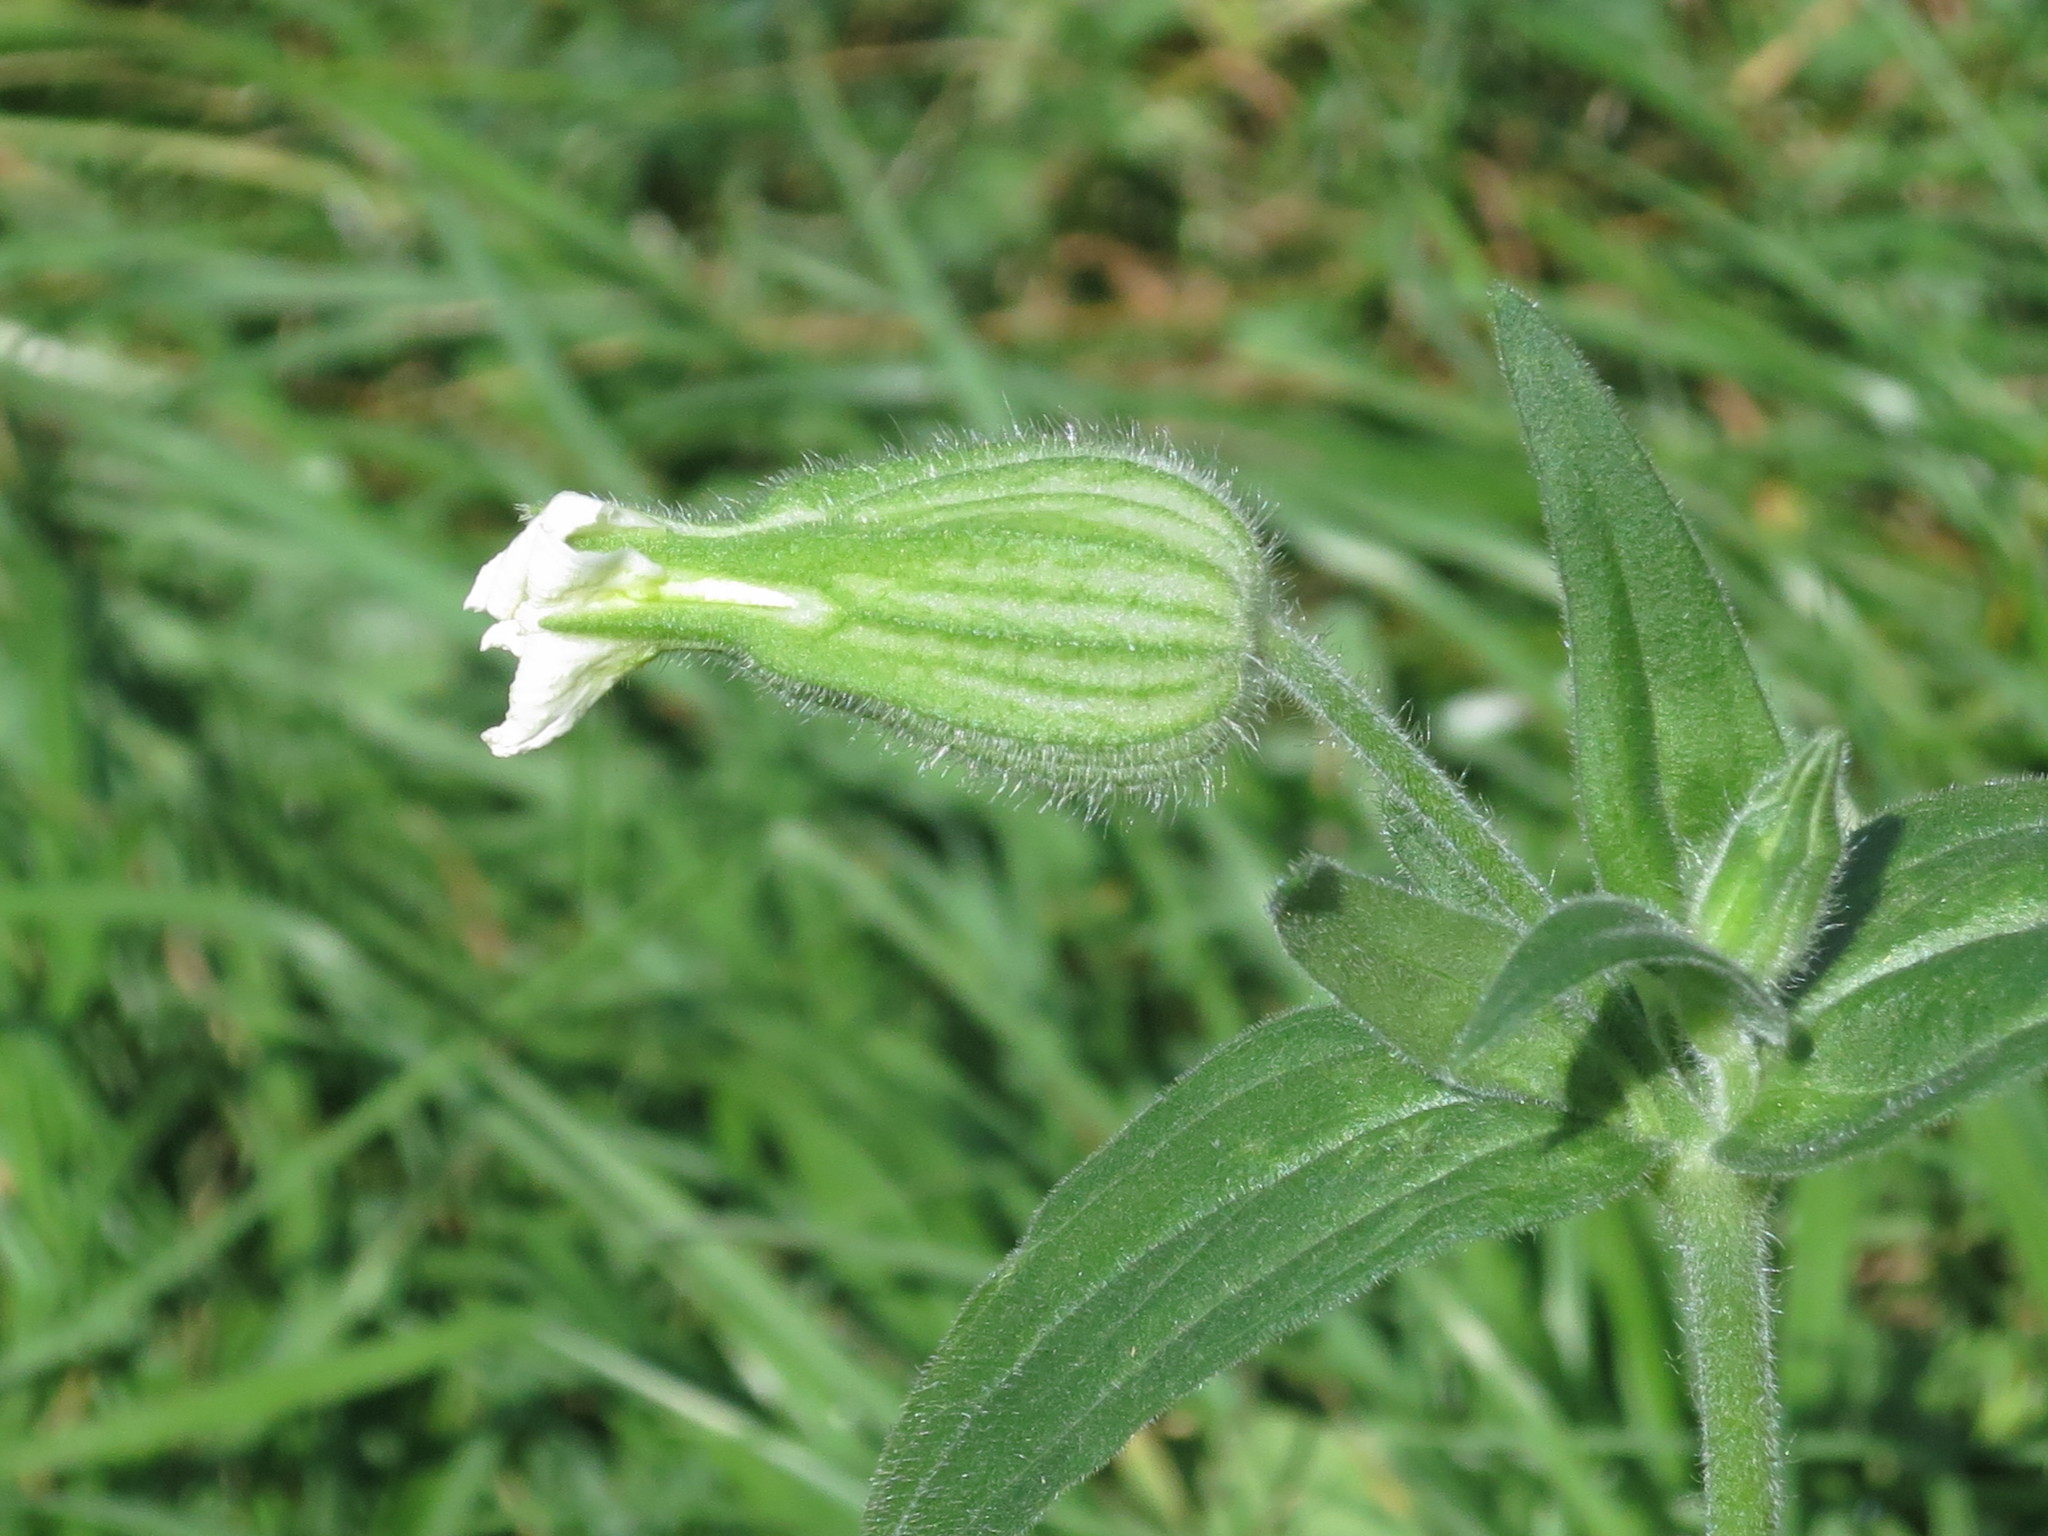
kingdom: Plantae
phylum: Tracheophyta
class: Magnoliopsida
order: Caryophyllales
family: Caryophyllaceae
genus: Silene
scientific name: Silene latifolia
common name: White campion
